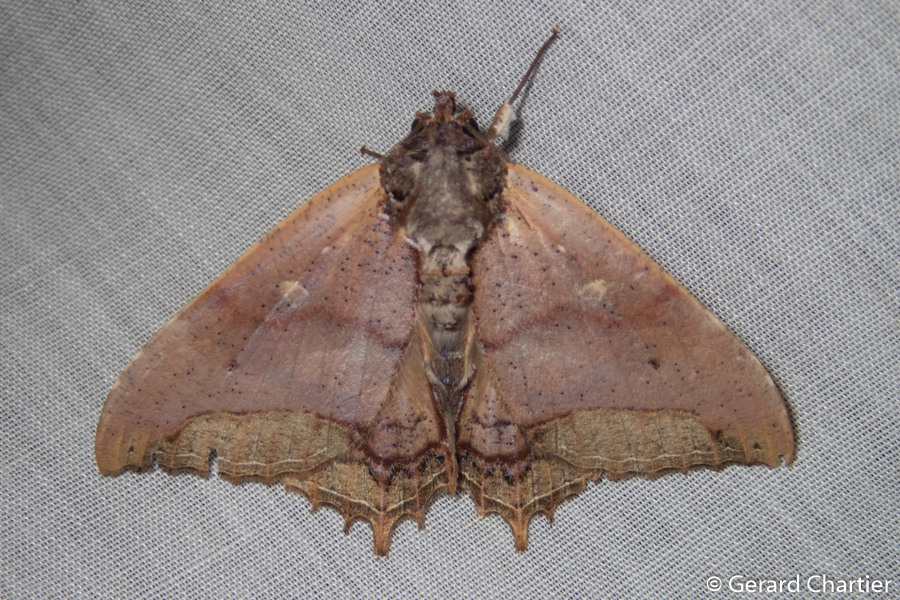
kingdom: Animalia
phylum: Arthropoda
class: Insecta
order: Lepidoptera
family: Erebidae
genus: Pterocyclophora
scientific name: Pterocyclophora ridleyi
